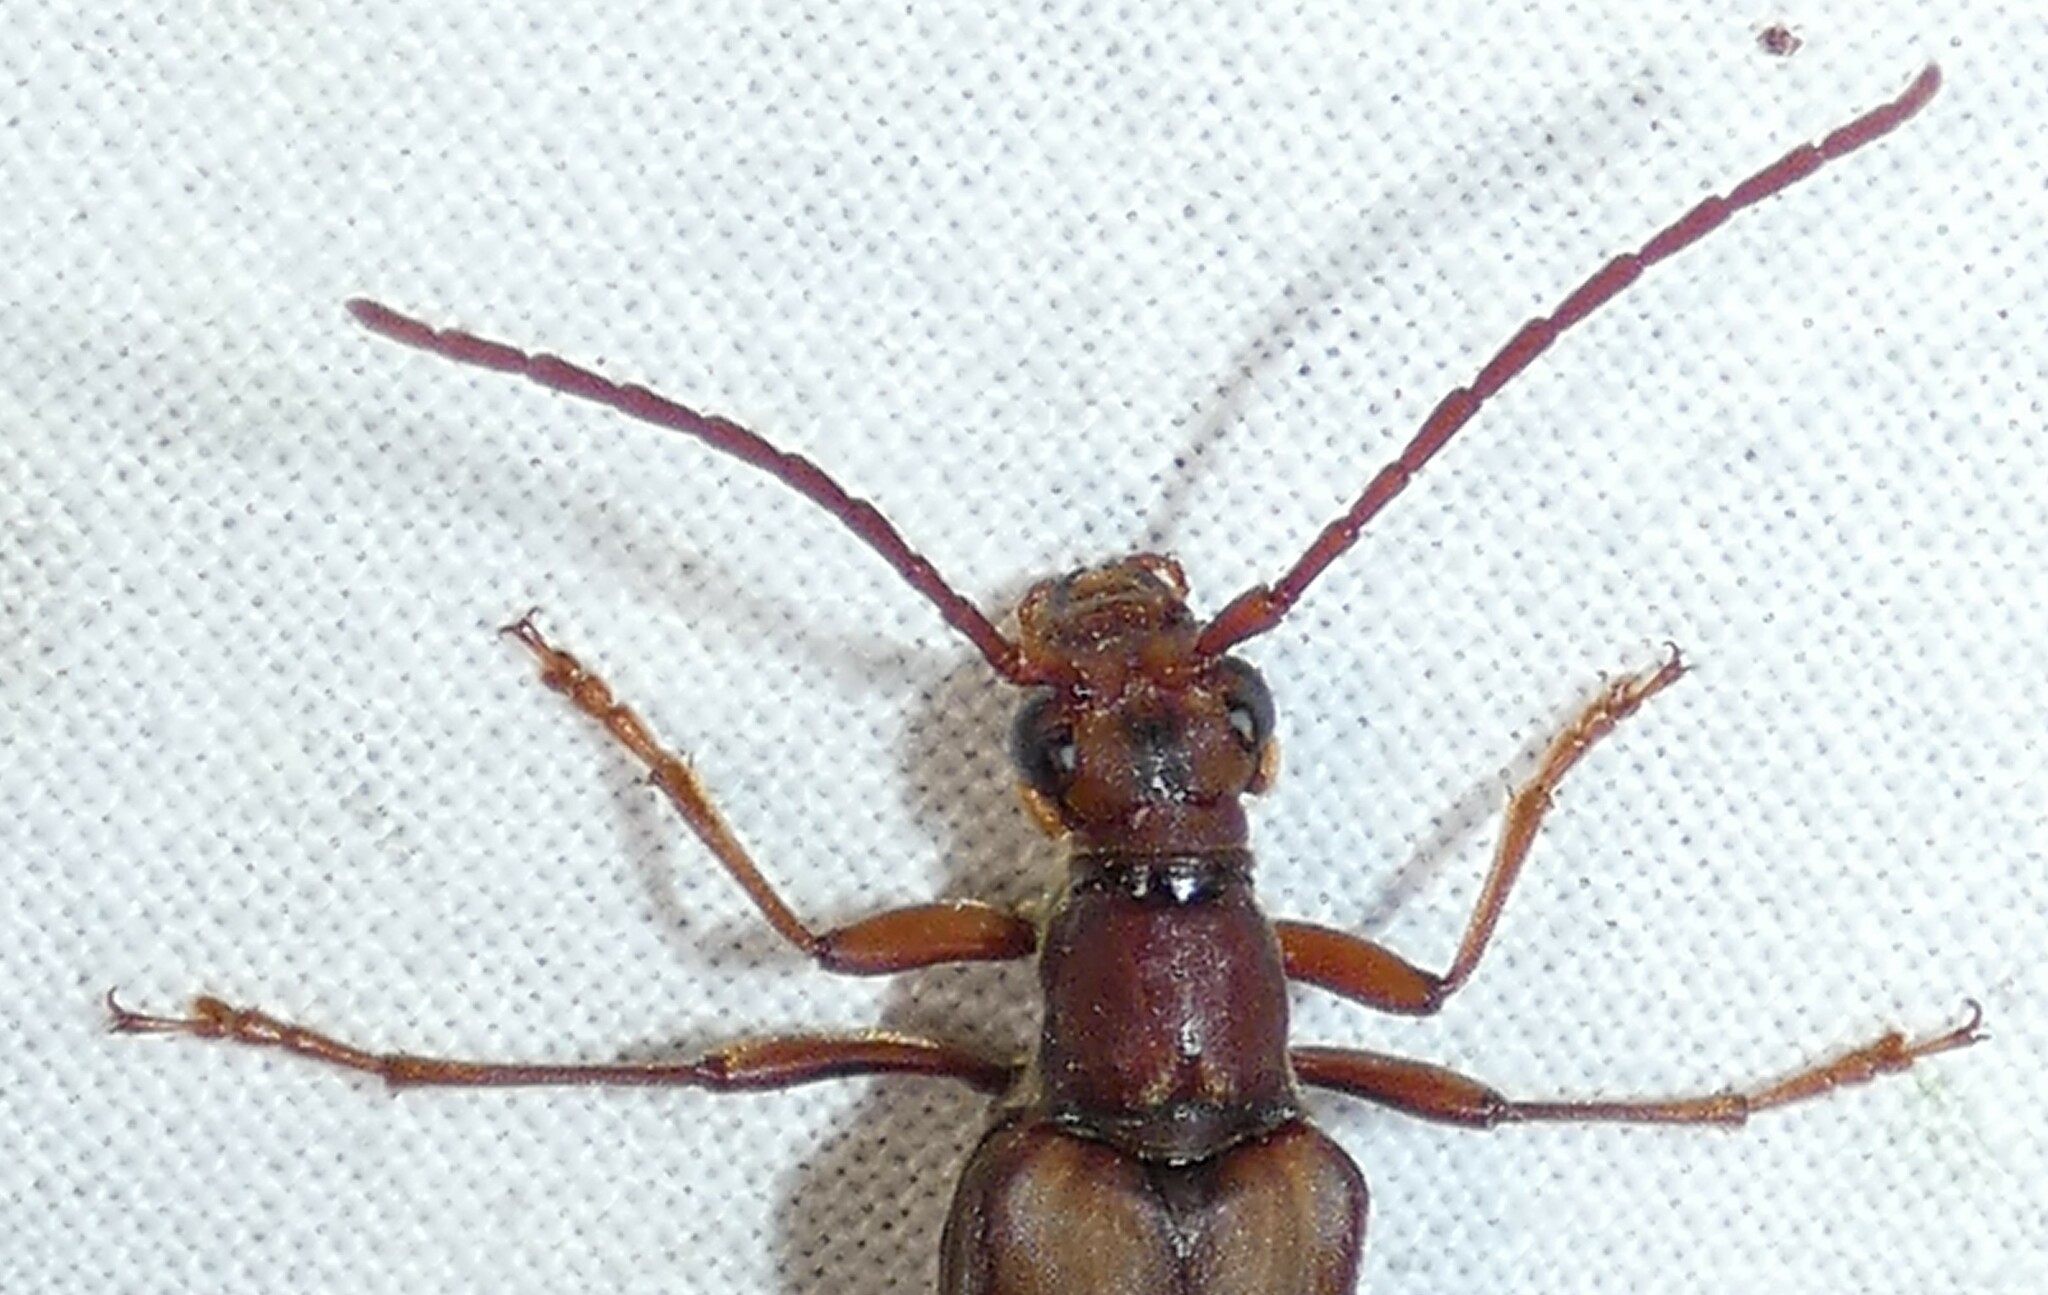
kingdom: Animalia
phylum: Arthropoda
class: Insecta
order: Coleoptera
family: Cerambycidae
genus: Bellamira
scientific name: Bellamira scalaris
